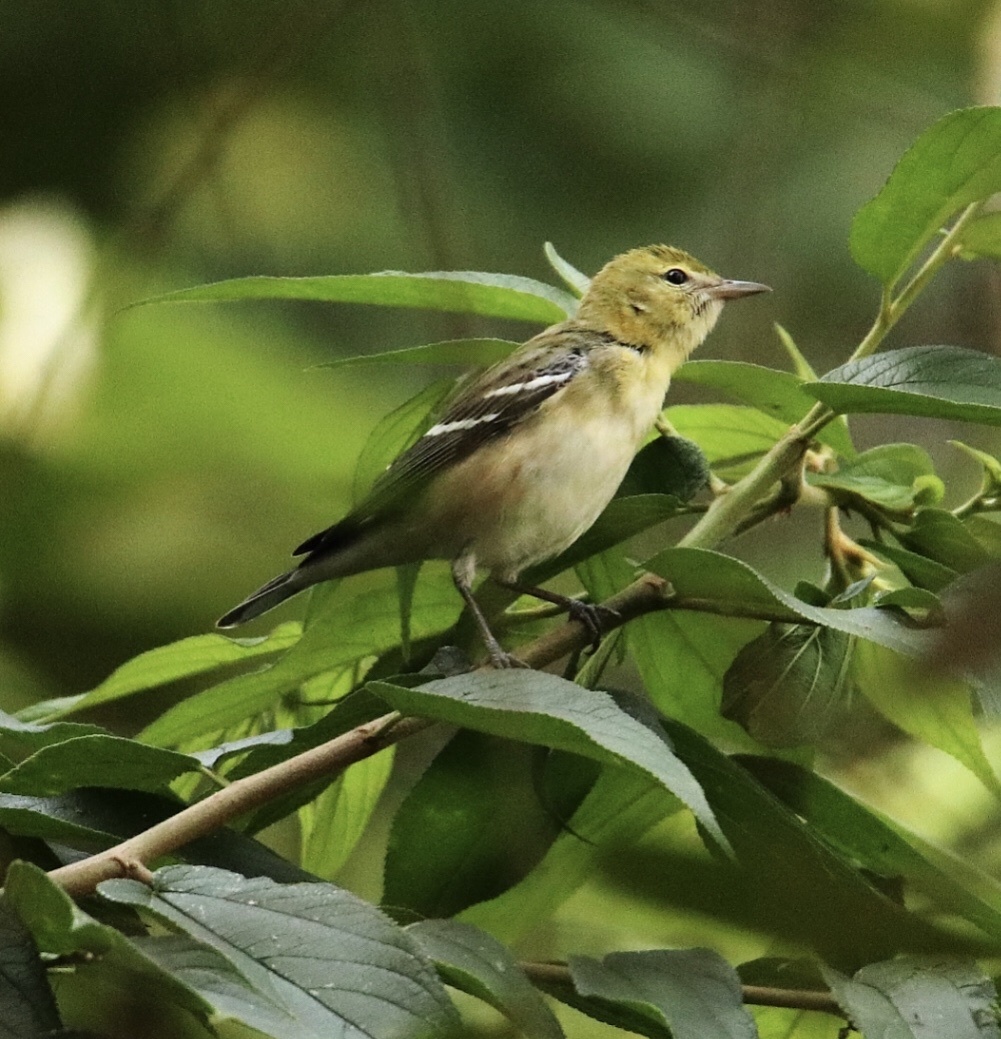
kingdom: Animalia
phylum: Chordata
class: Aves
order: Passeriformes
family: Parulidae
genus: Setophaga
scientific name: Setophaga castanea
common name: Bay-breasted warbler
